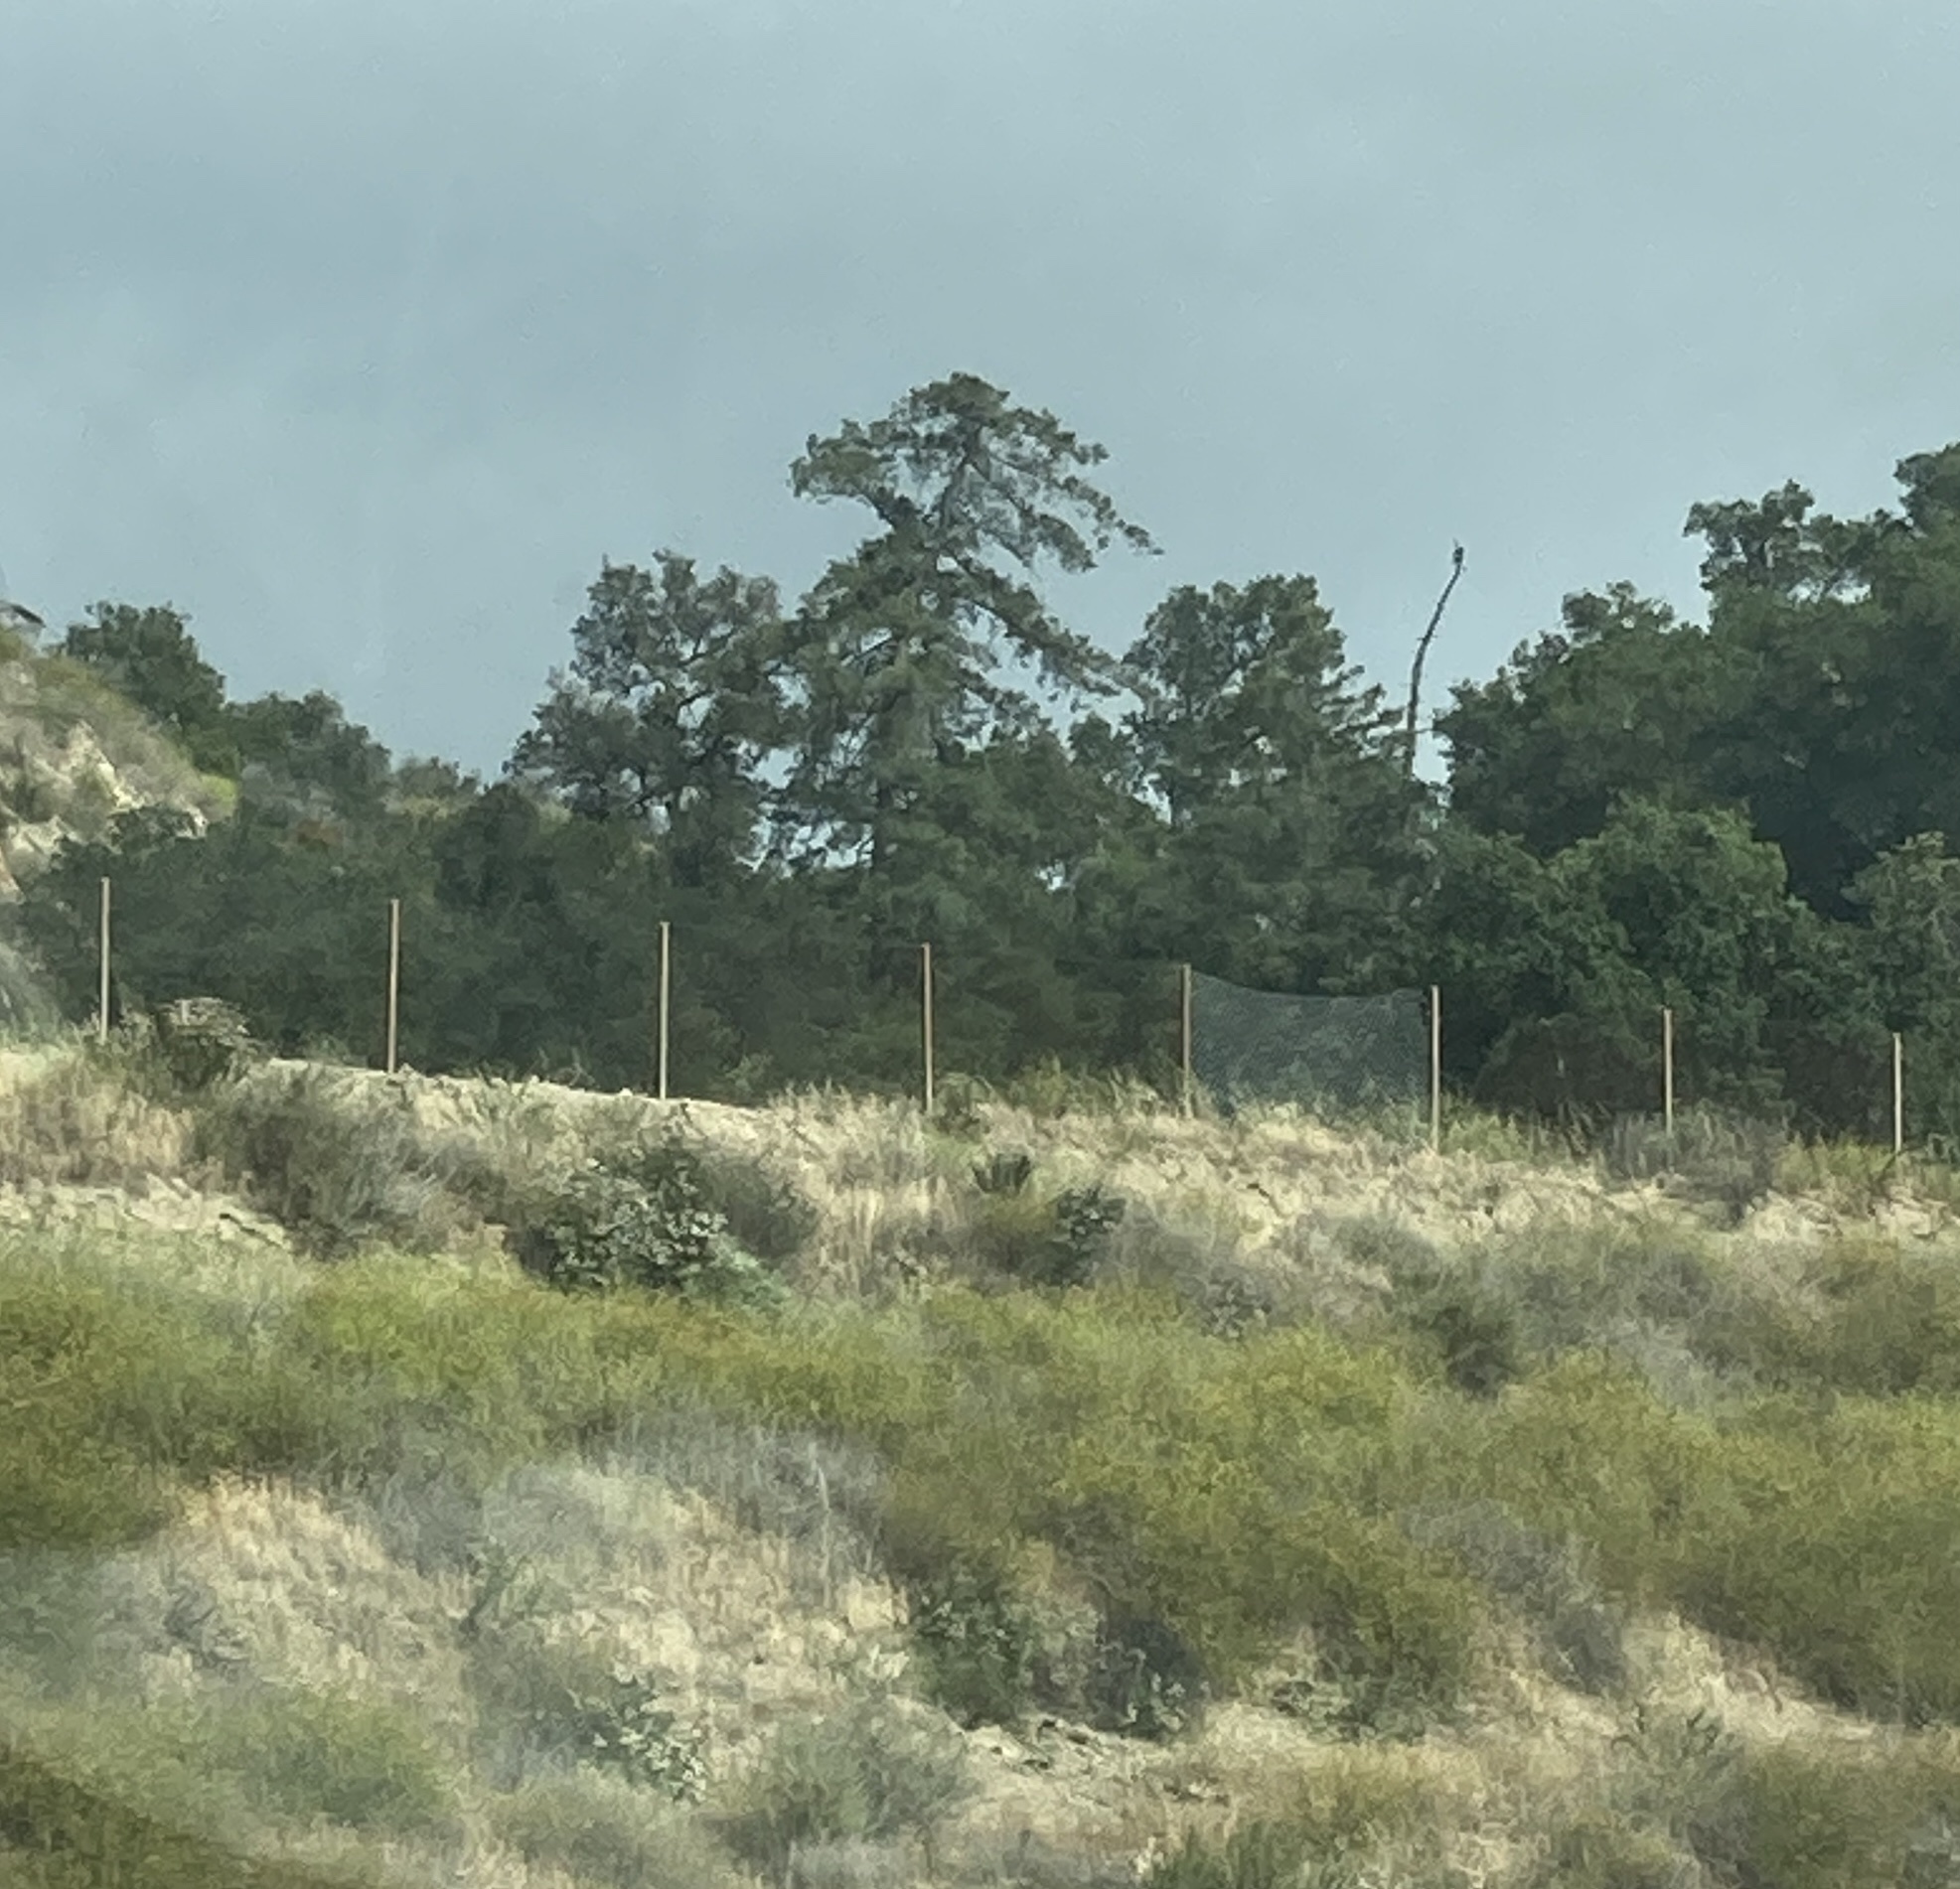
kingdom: Plantae
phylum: Tracheophyta
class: Pinopsida
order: Pinales
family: Pinaceae
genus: Pseudotsuga
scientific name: Pseudotsuga macrocarpa
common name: Big-cone douglas-fir
